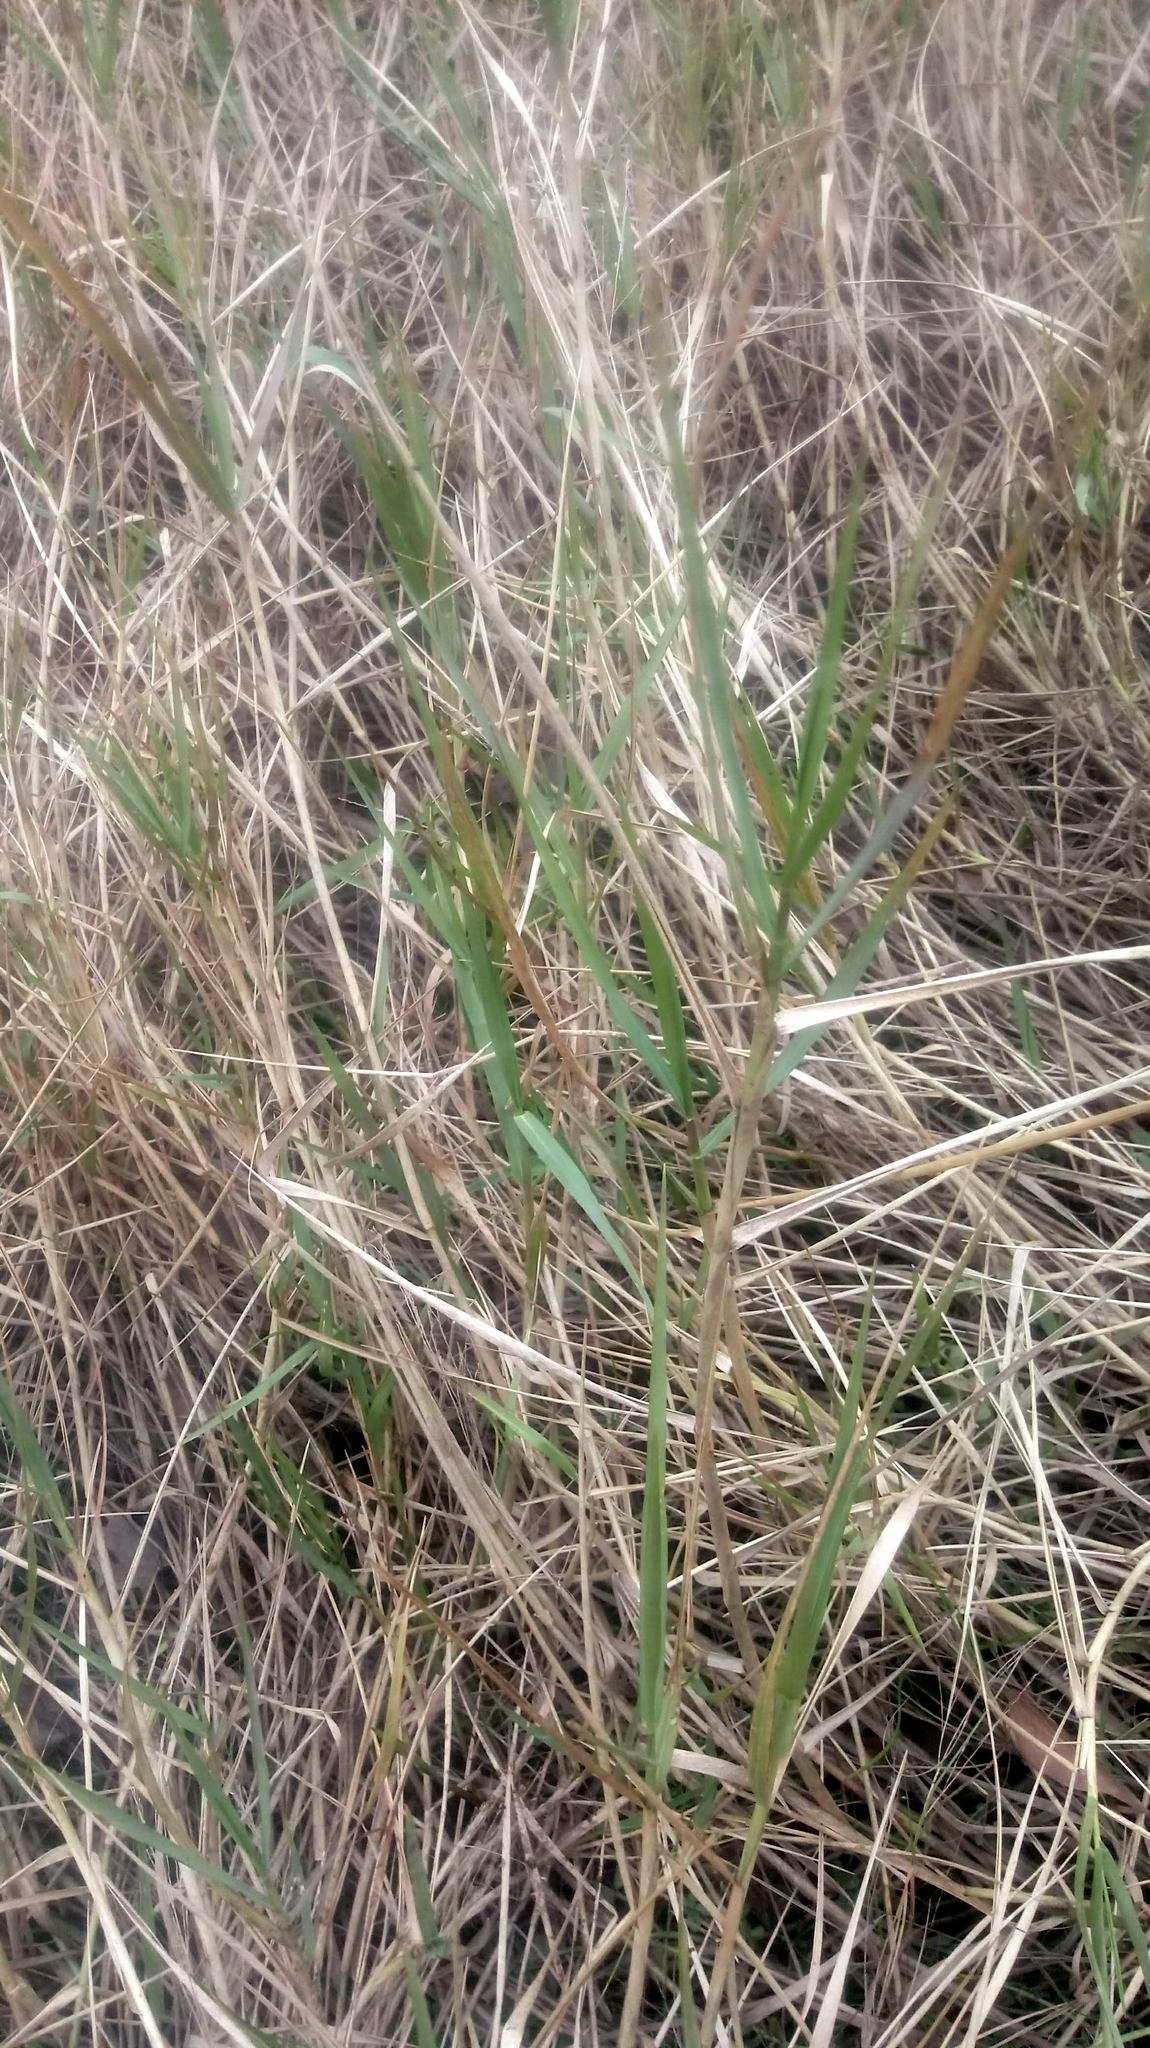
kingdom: Plantae
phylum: Tracheophyta
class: Liliopsida
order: Poales
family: Poaceae
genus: Panicum
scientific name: Panicum repens
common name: Torpedo grass
